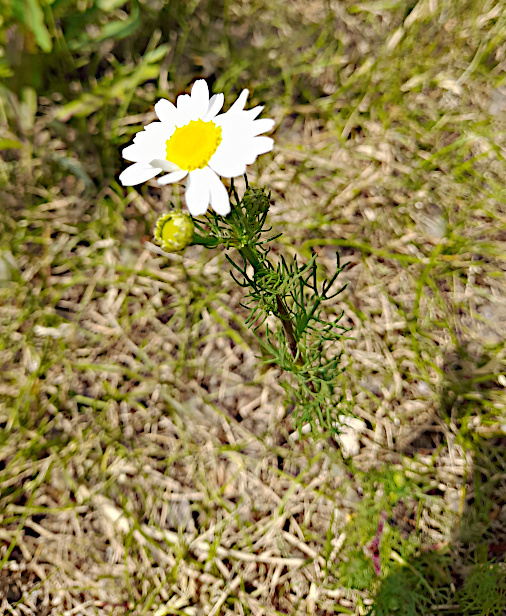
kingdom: Plantae
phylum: Tracheophyta
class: Magnoliopsida
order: Asterales
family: Asteraceae
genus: Tripleurospermum
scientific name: Tripleurospermum inodorum
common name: Scentless mayweed
